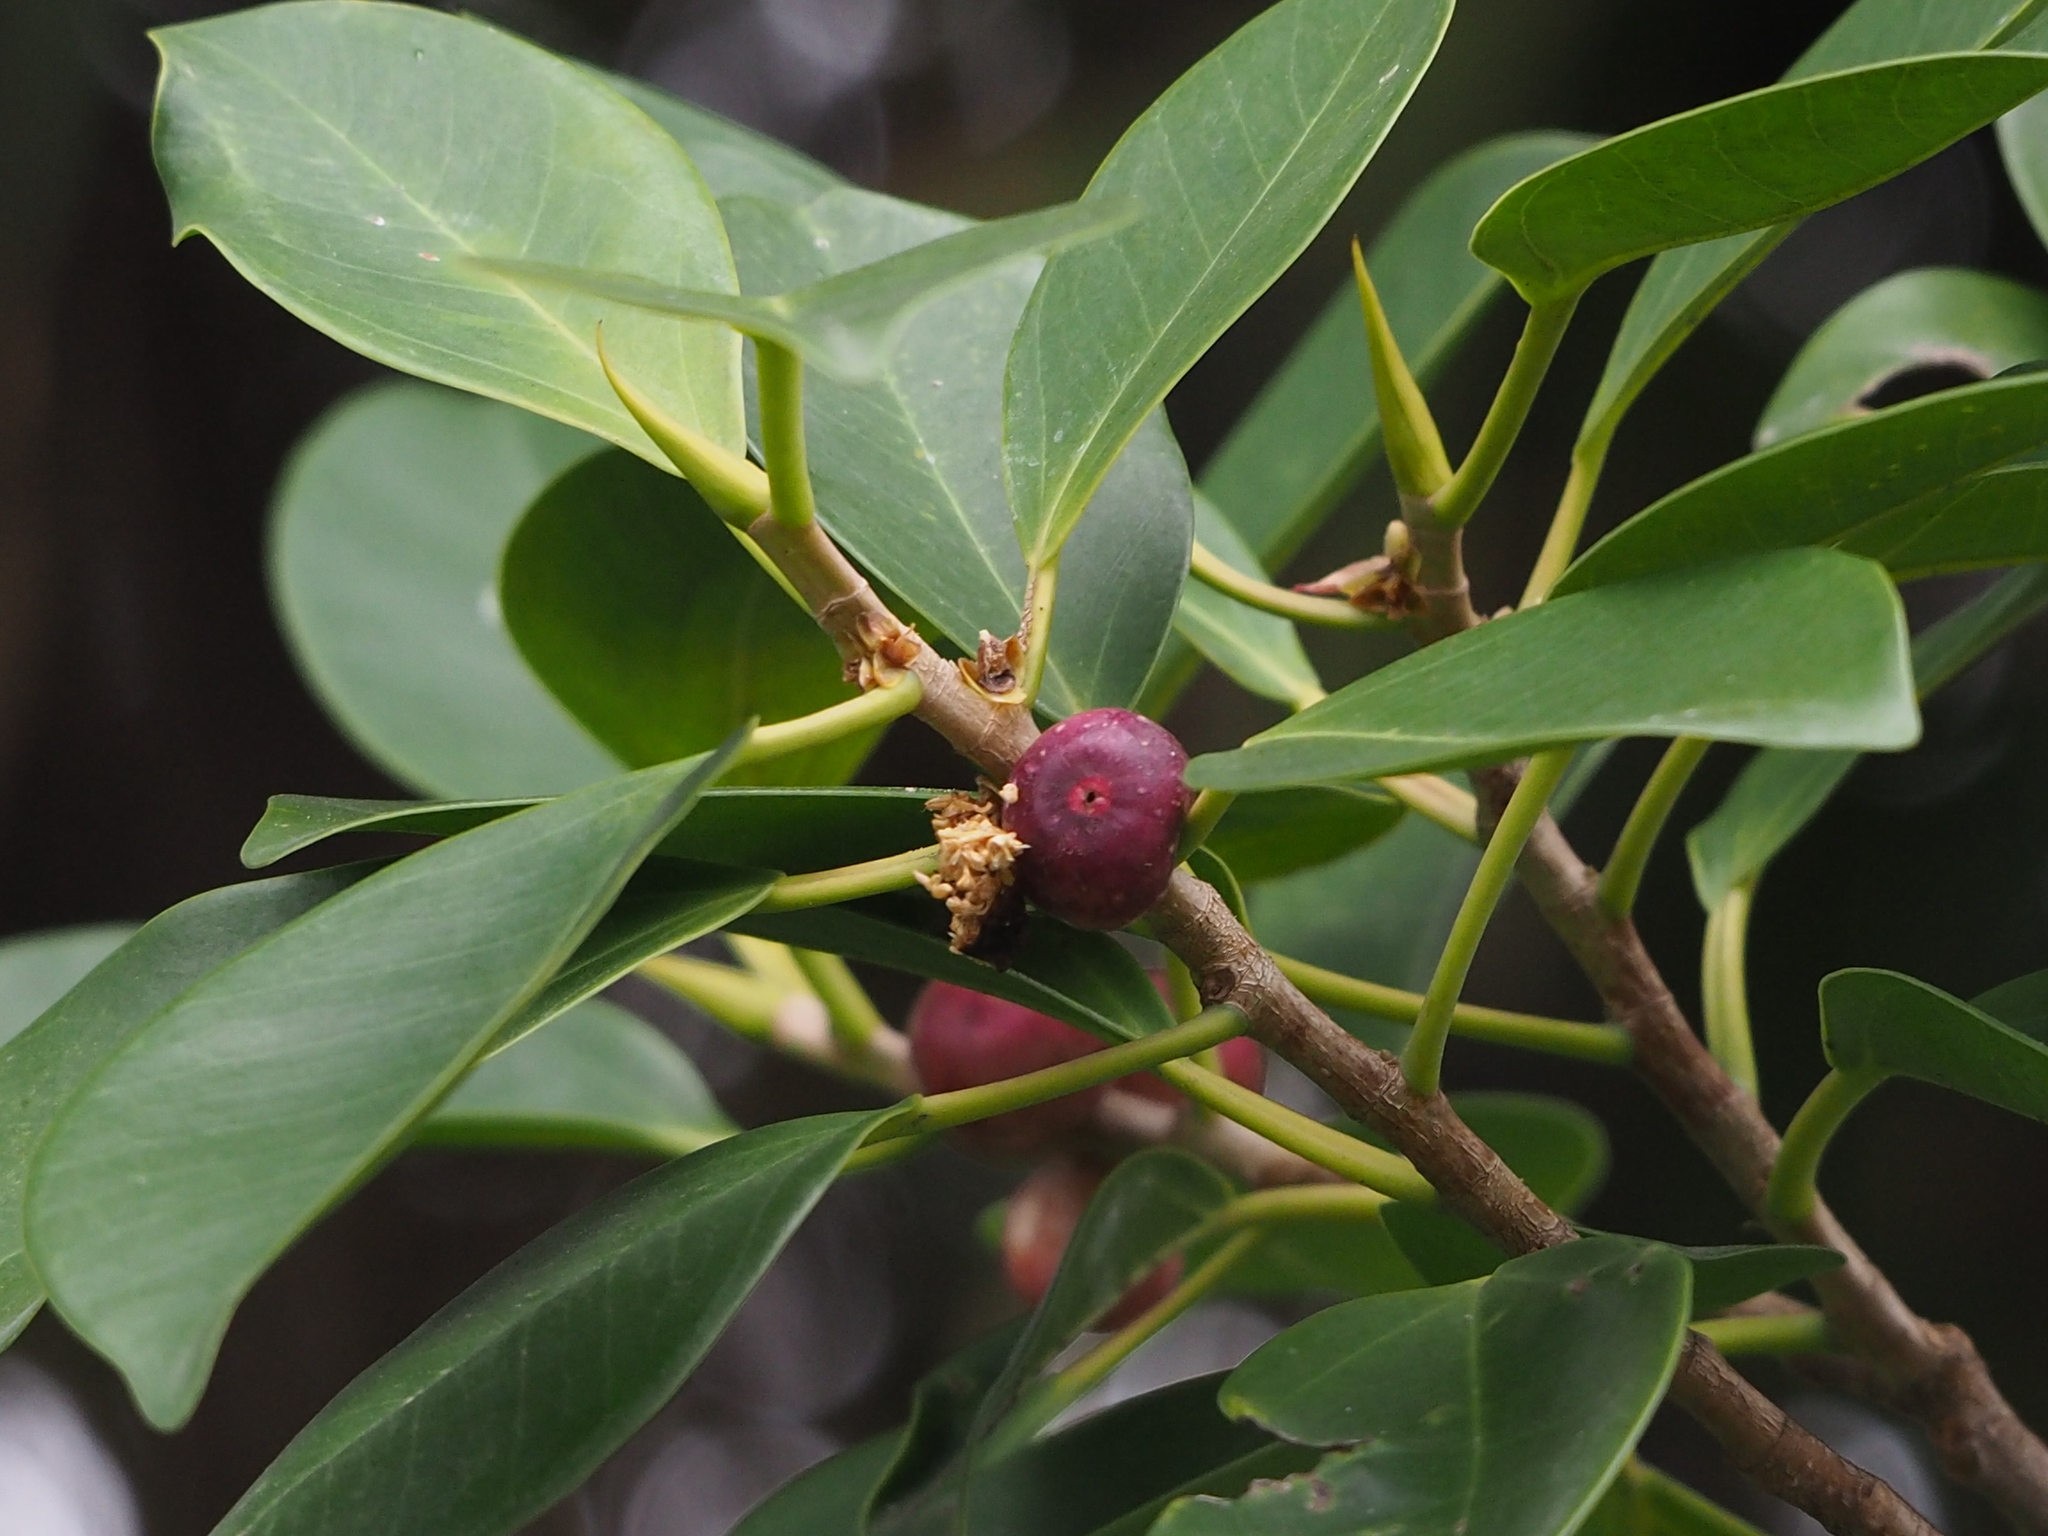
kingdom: Plantae
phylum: Tracheophyta
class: Magnoliopsida
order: Rosales
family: Moraceae
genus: Ficus
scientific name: Ficus microcarpa
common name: Chinese banyan
